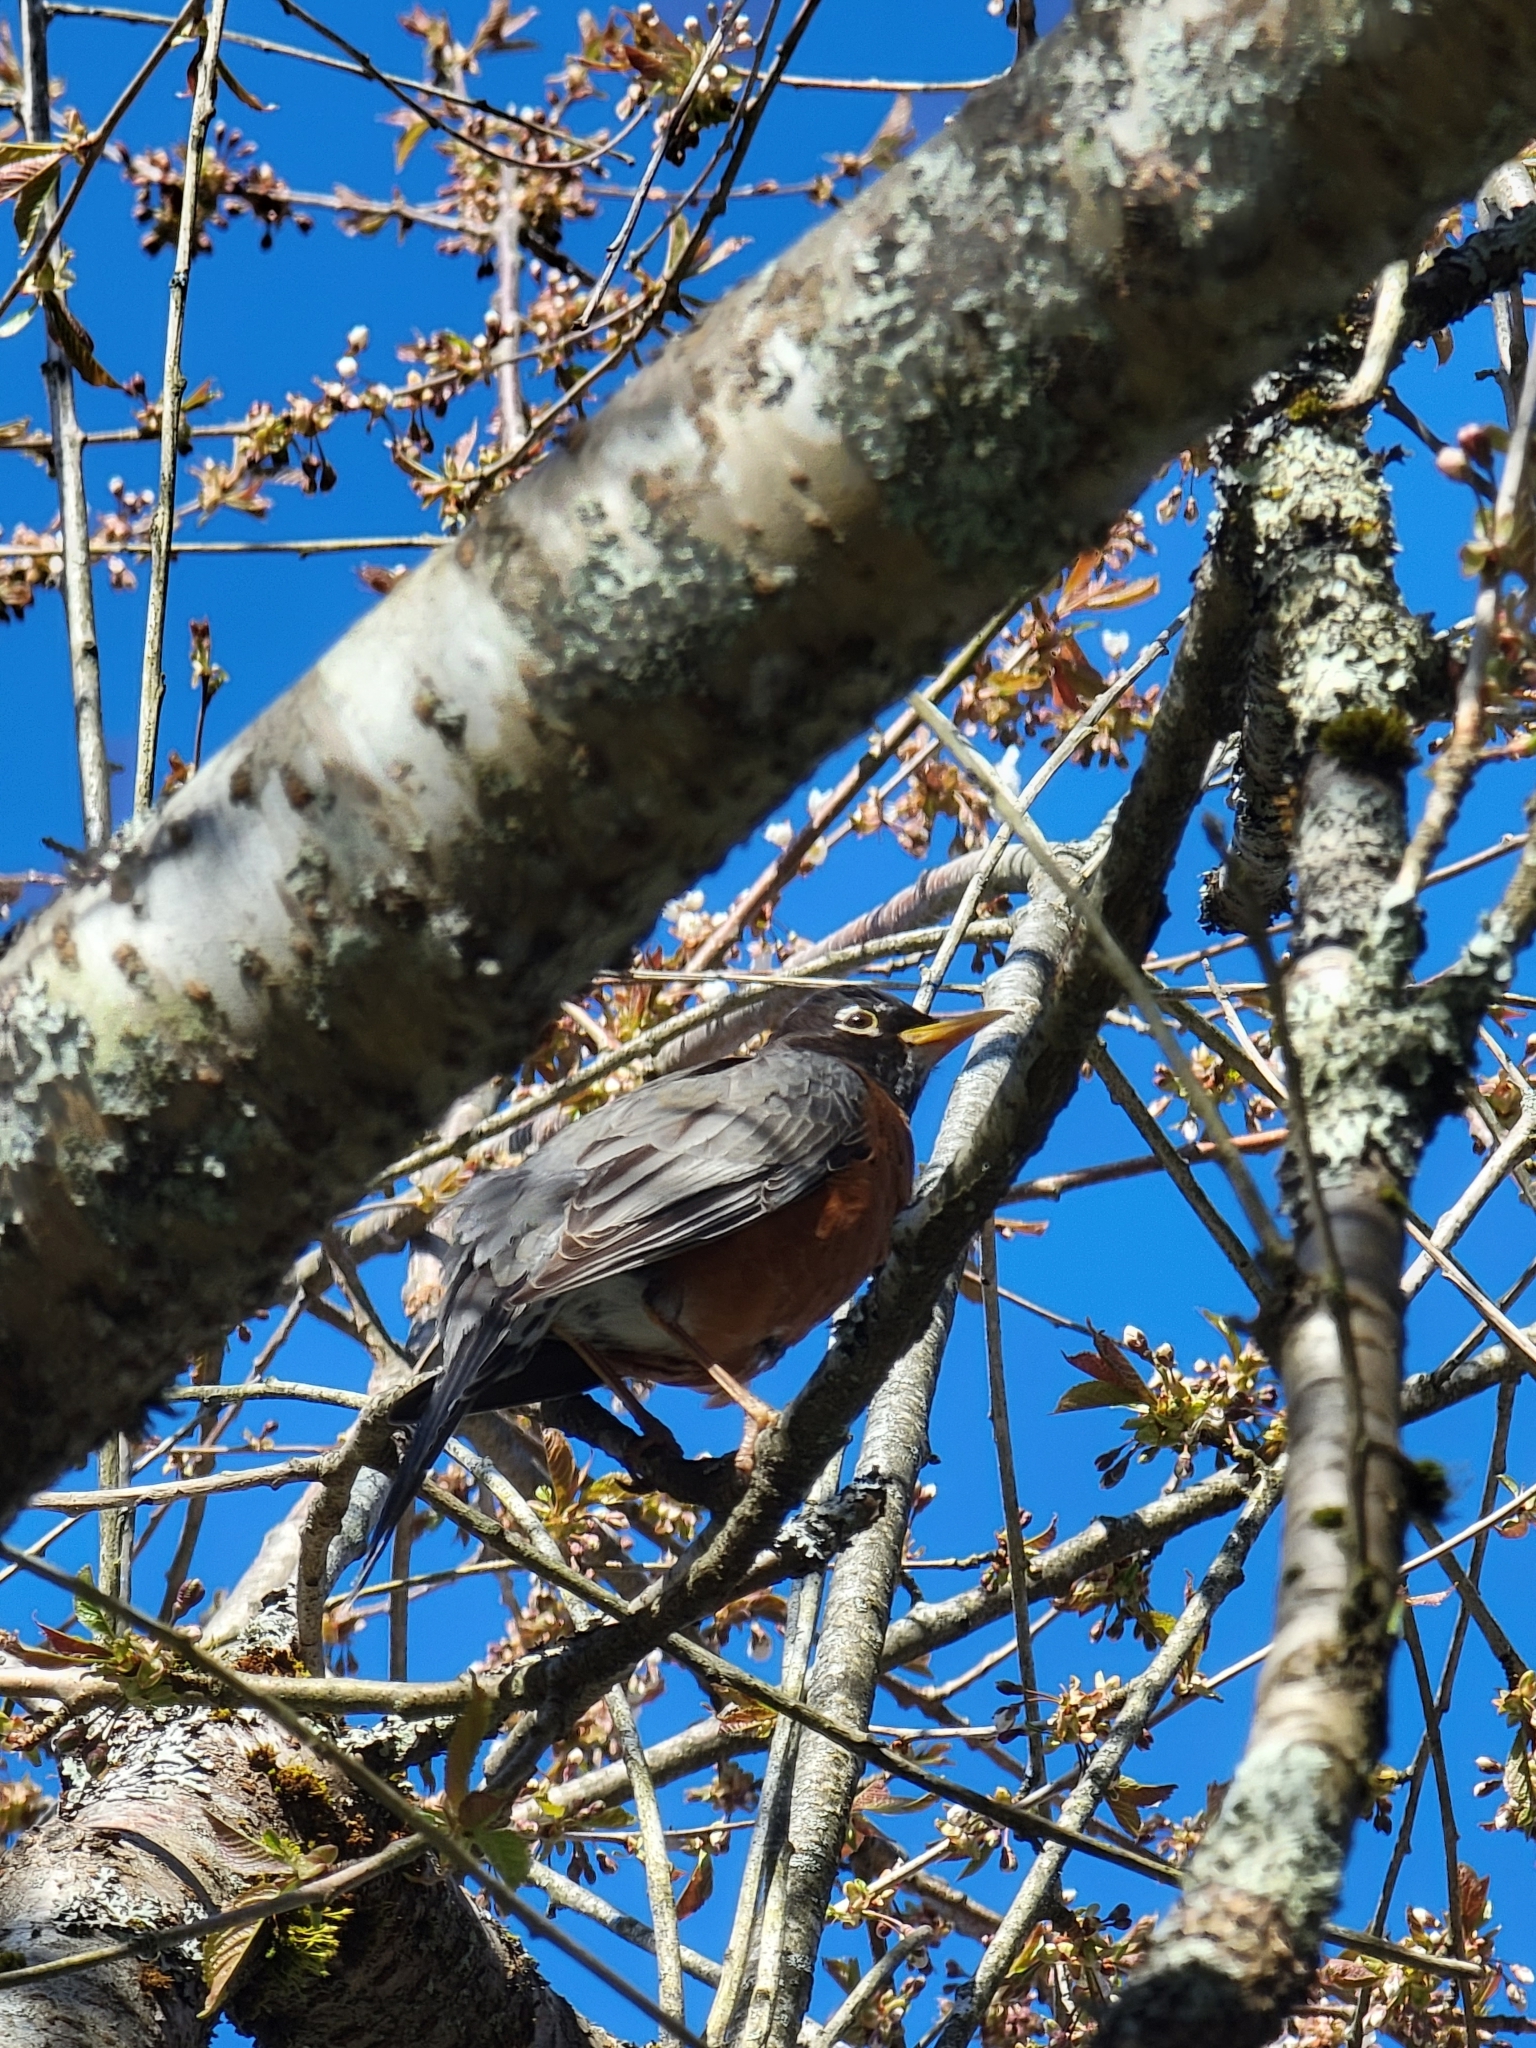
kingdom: Animalia
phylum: Chordata
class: Aves
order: Passeriformes
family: Turdidae
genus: Turdus
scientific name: Turdus migratorius
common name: American robin
